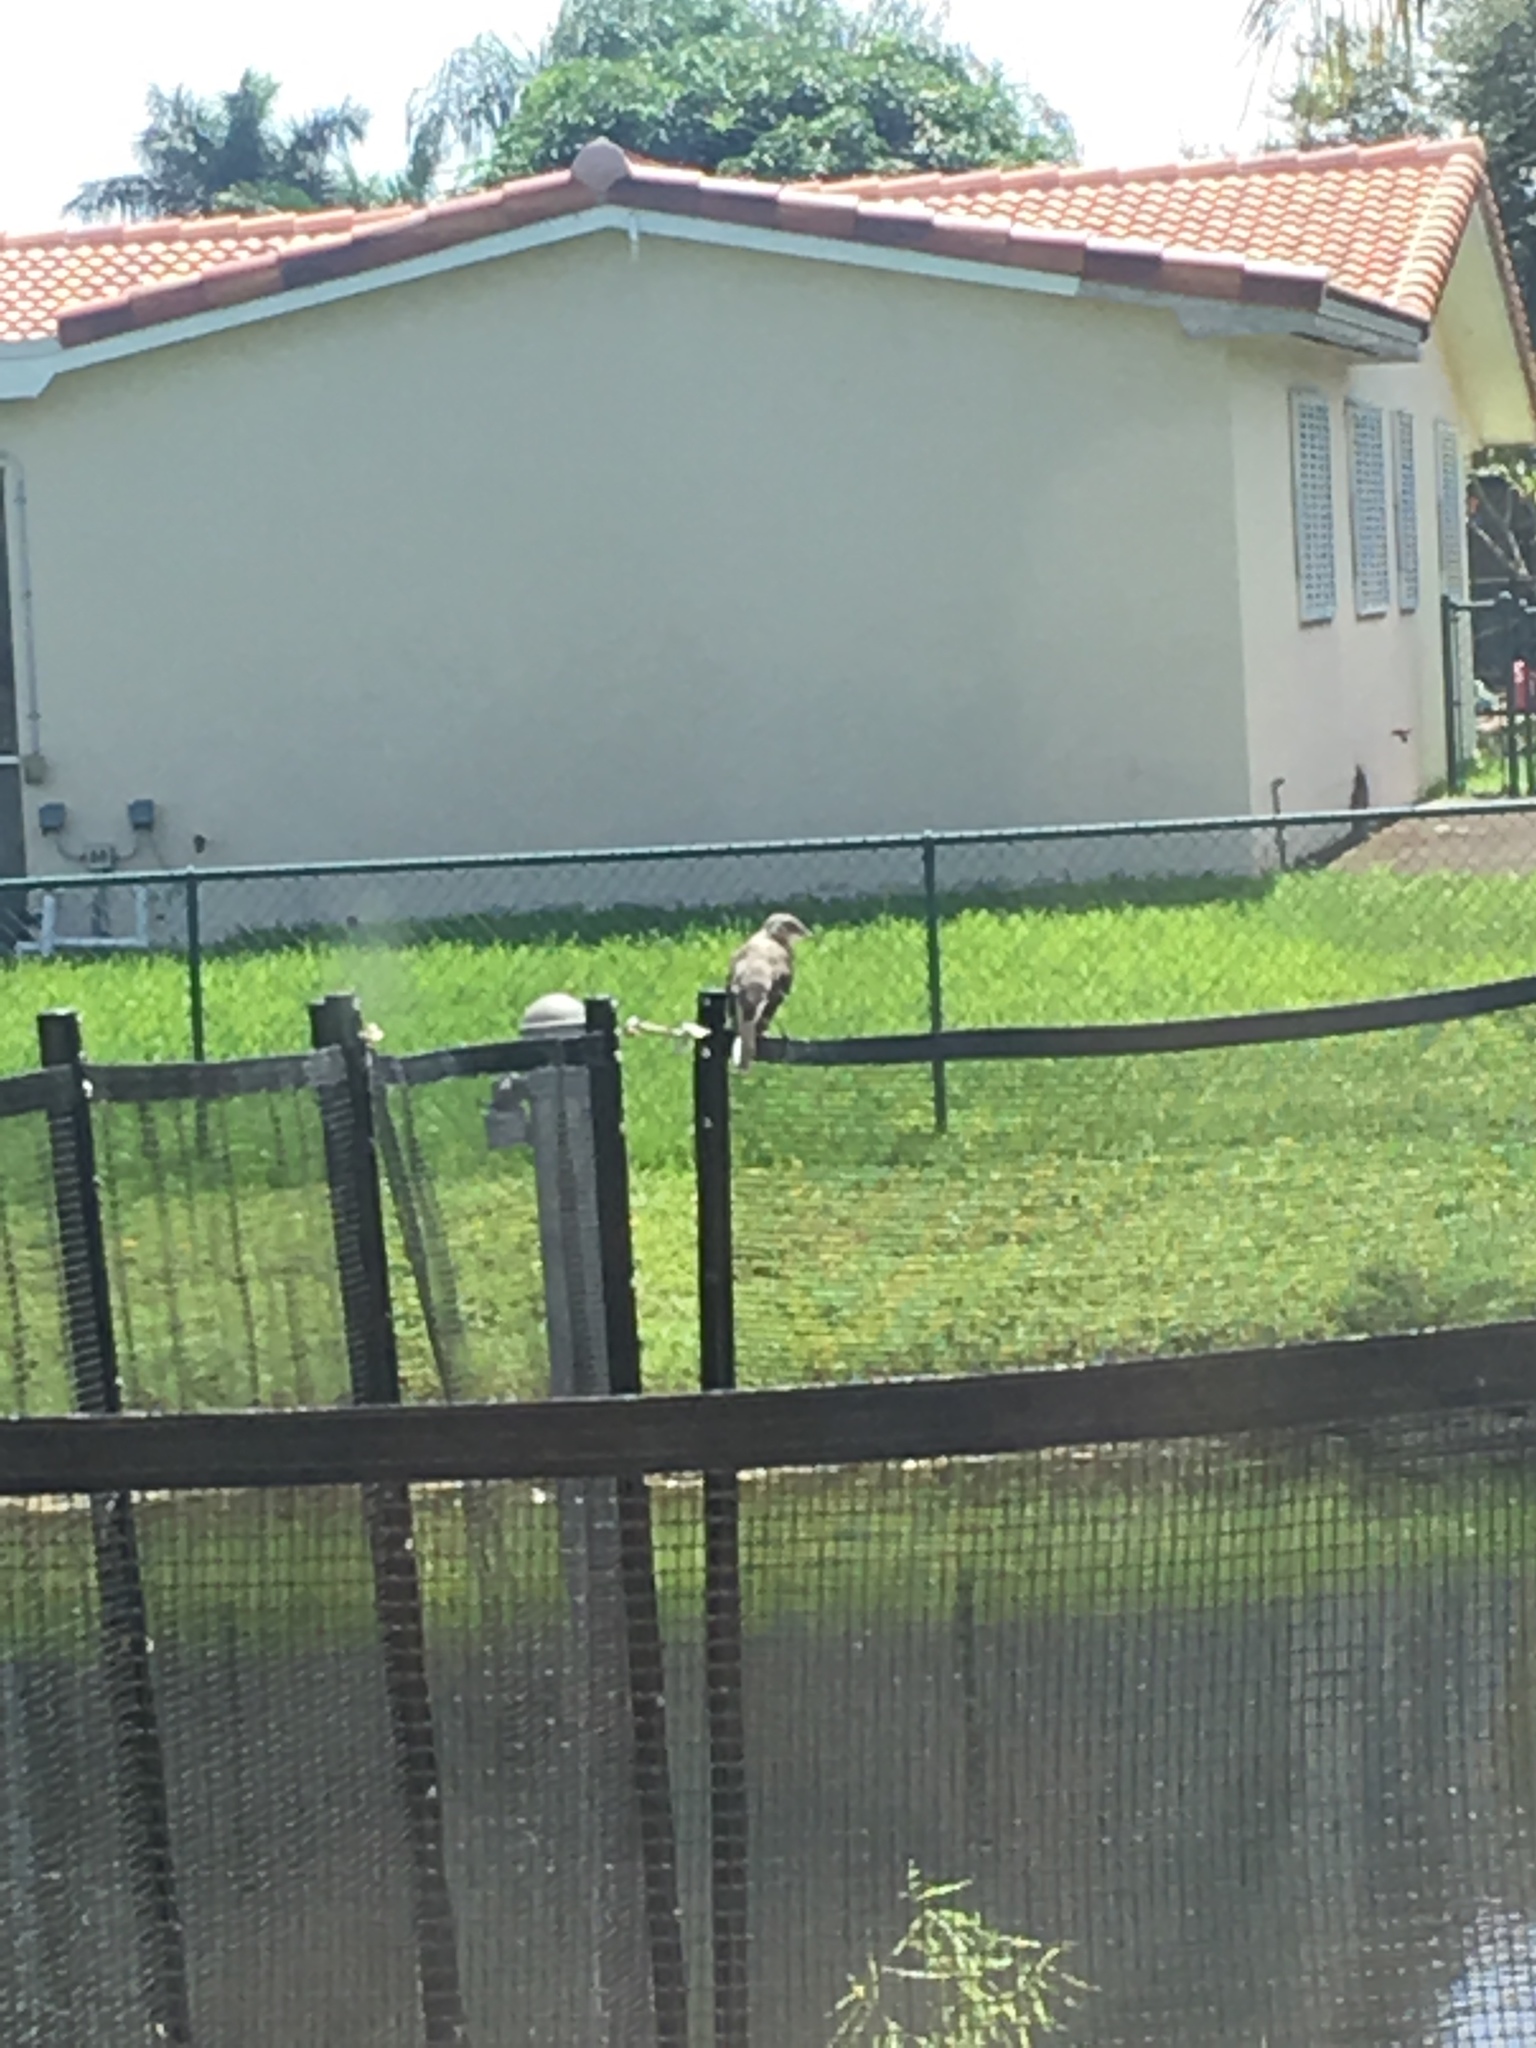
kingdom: Animalia
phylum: Chordata
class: Aves
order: Passeriformes
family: Mimidae
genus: Mimus
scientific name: Mimus polyglottos
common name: Northern mockingbird
